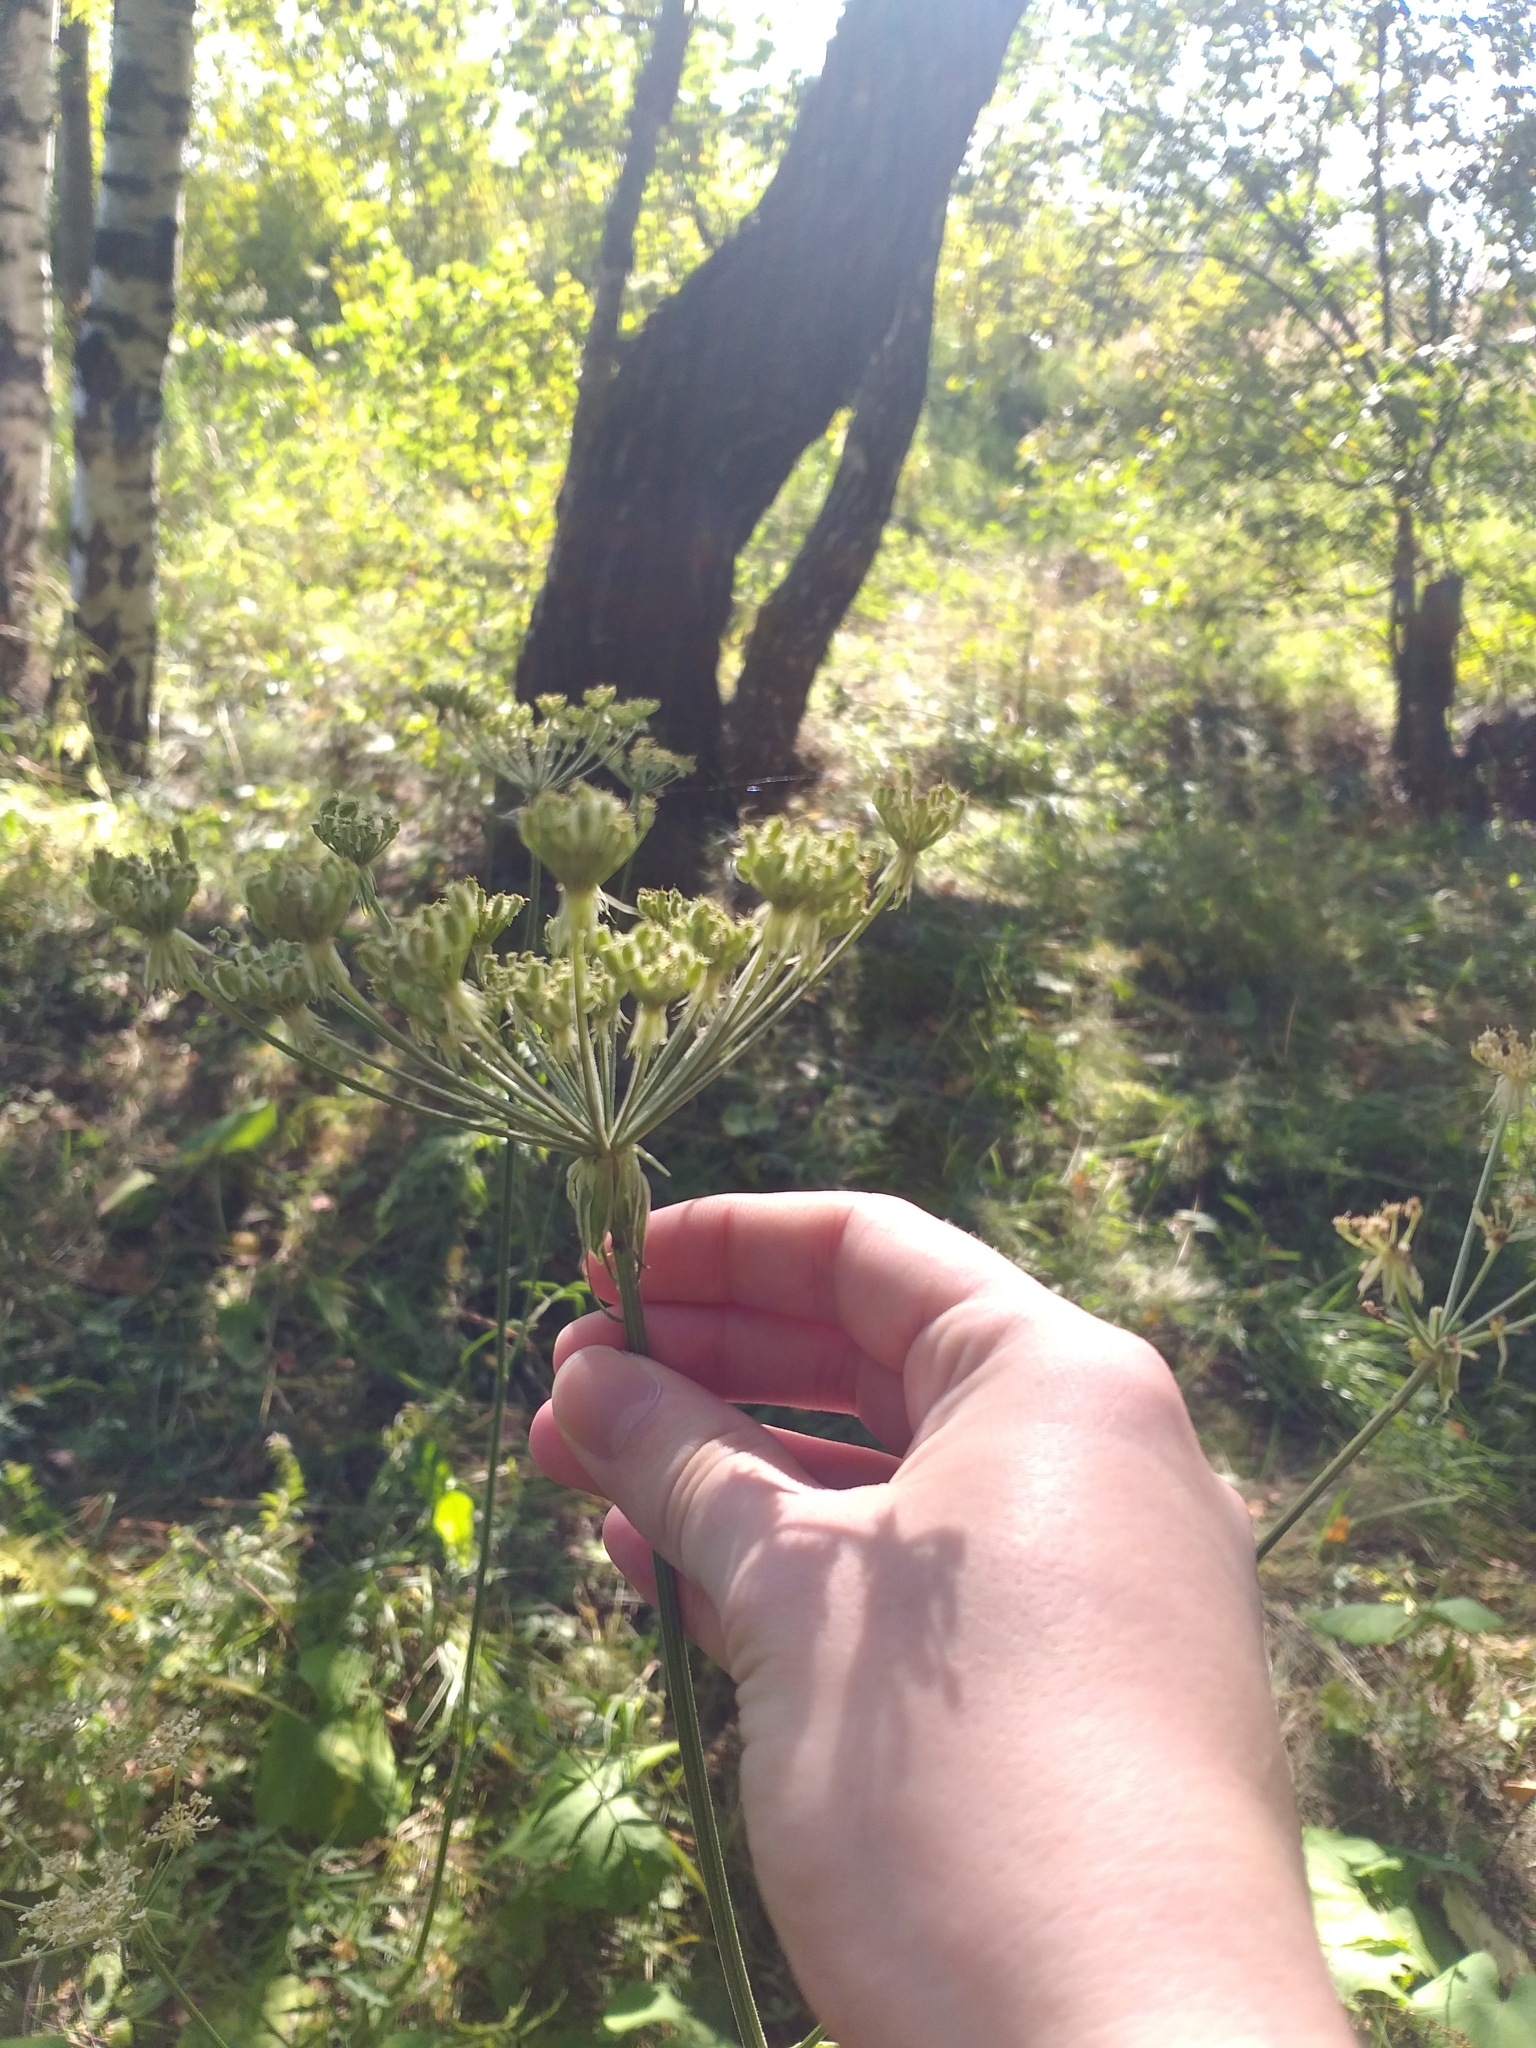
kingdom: Plantae
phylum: Tracheophyta
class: Magnoliopsida
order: Apiales
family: Apiaceae
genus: Silphiodaucus
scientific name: Silphiodaucus prutenicus
